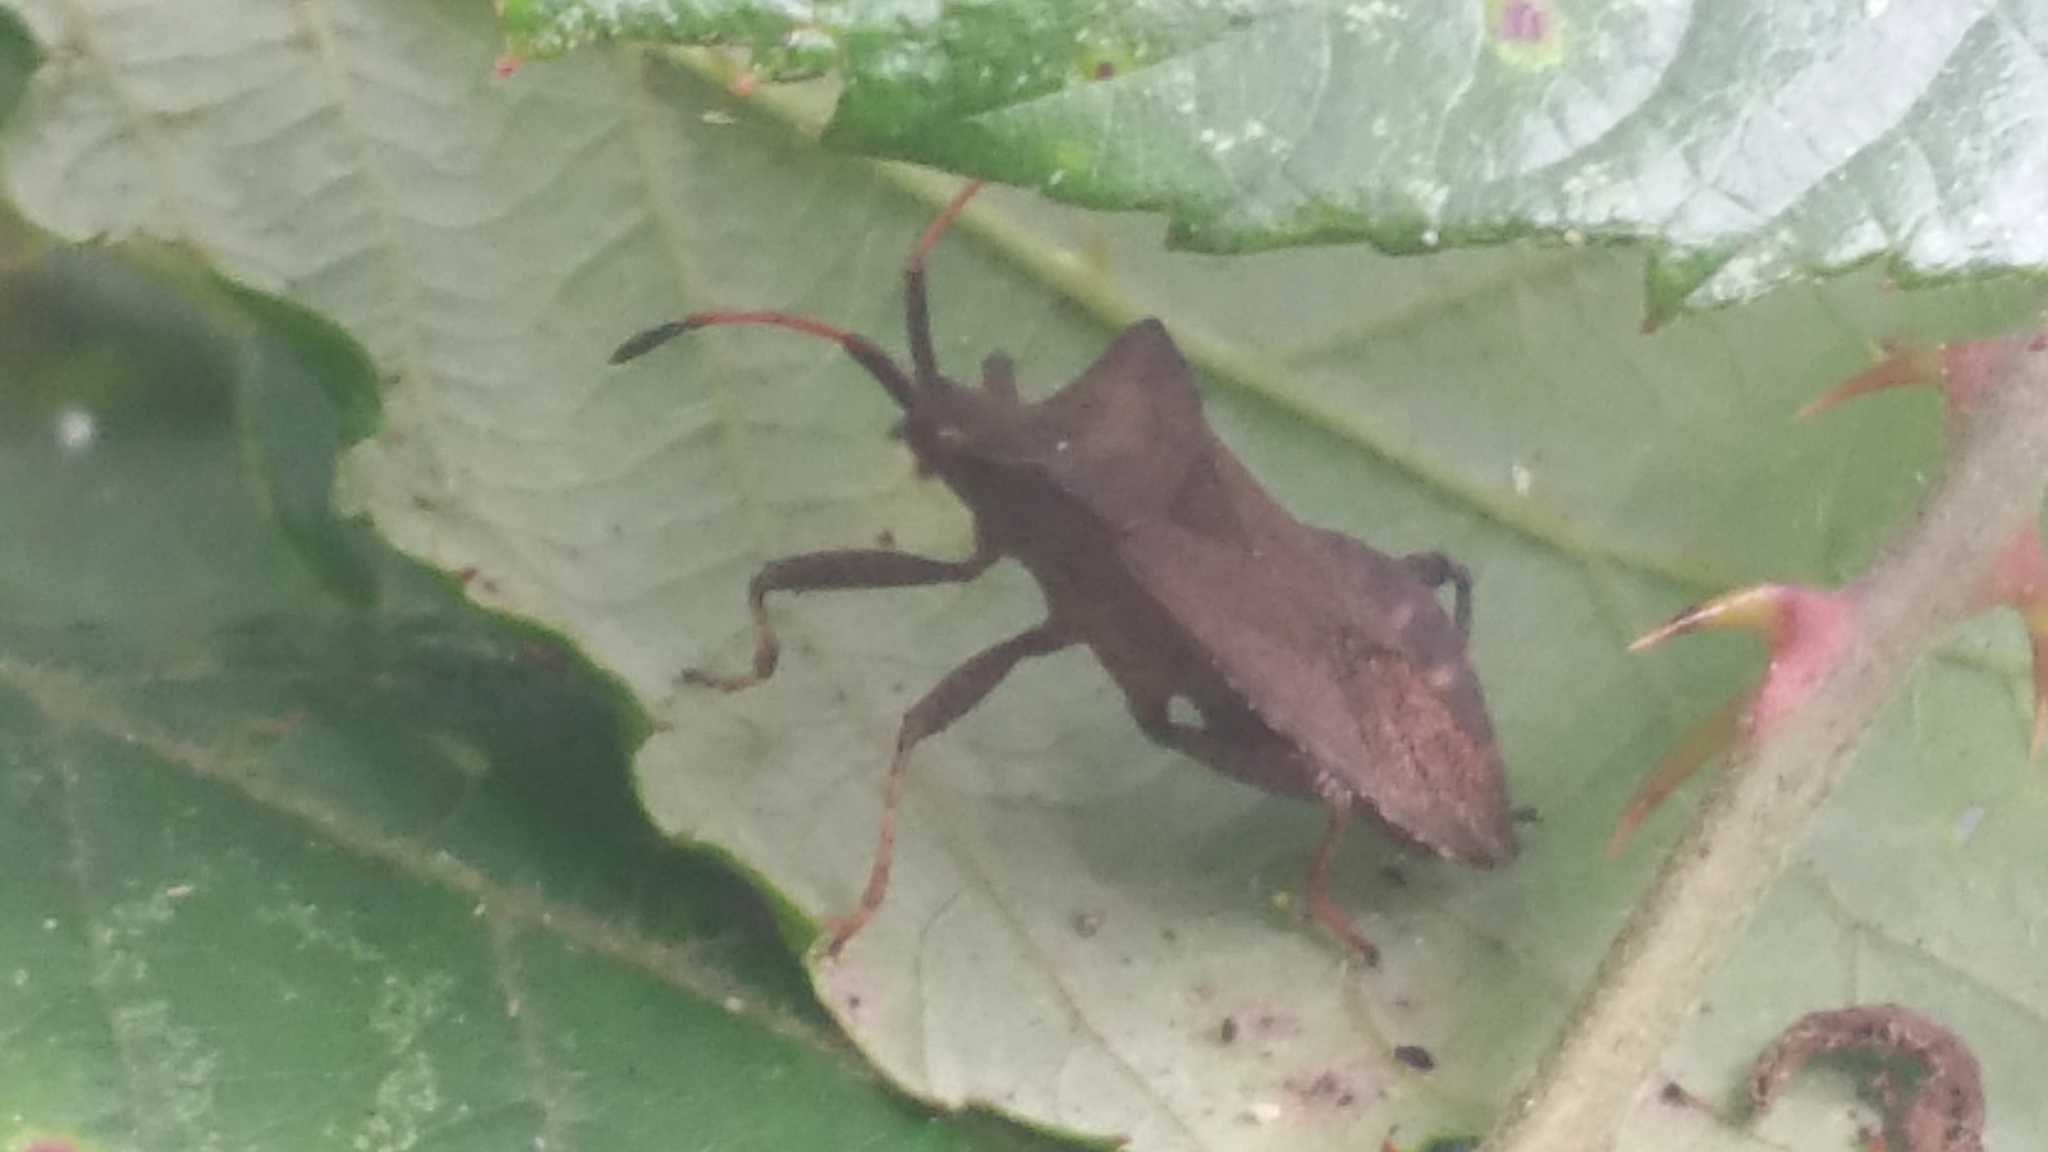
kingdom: Animalia
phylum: Arthropoda
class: Insecta
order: Hemiptera
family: Coreidae
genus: Coreus
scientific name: Coreus marginatus
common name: Dock bug
